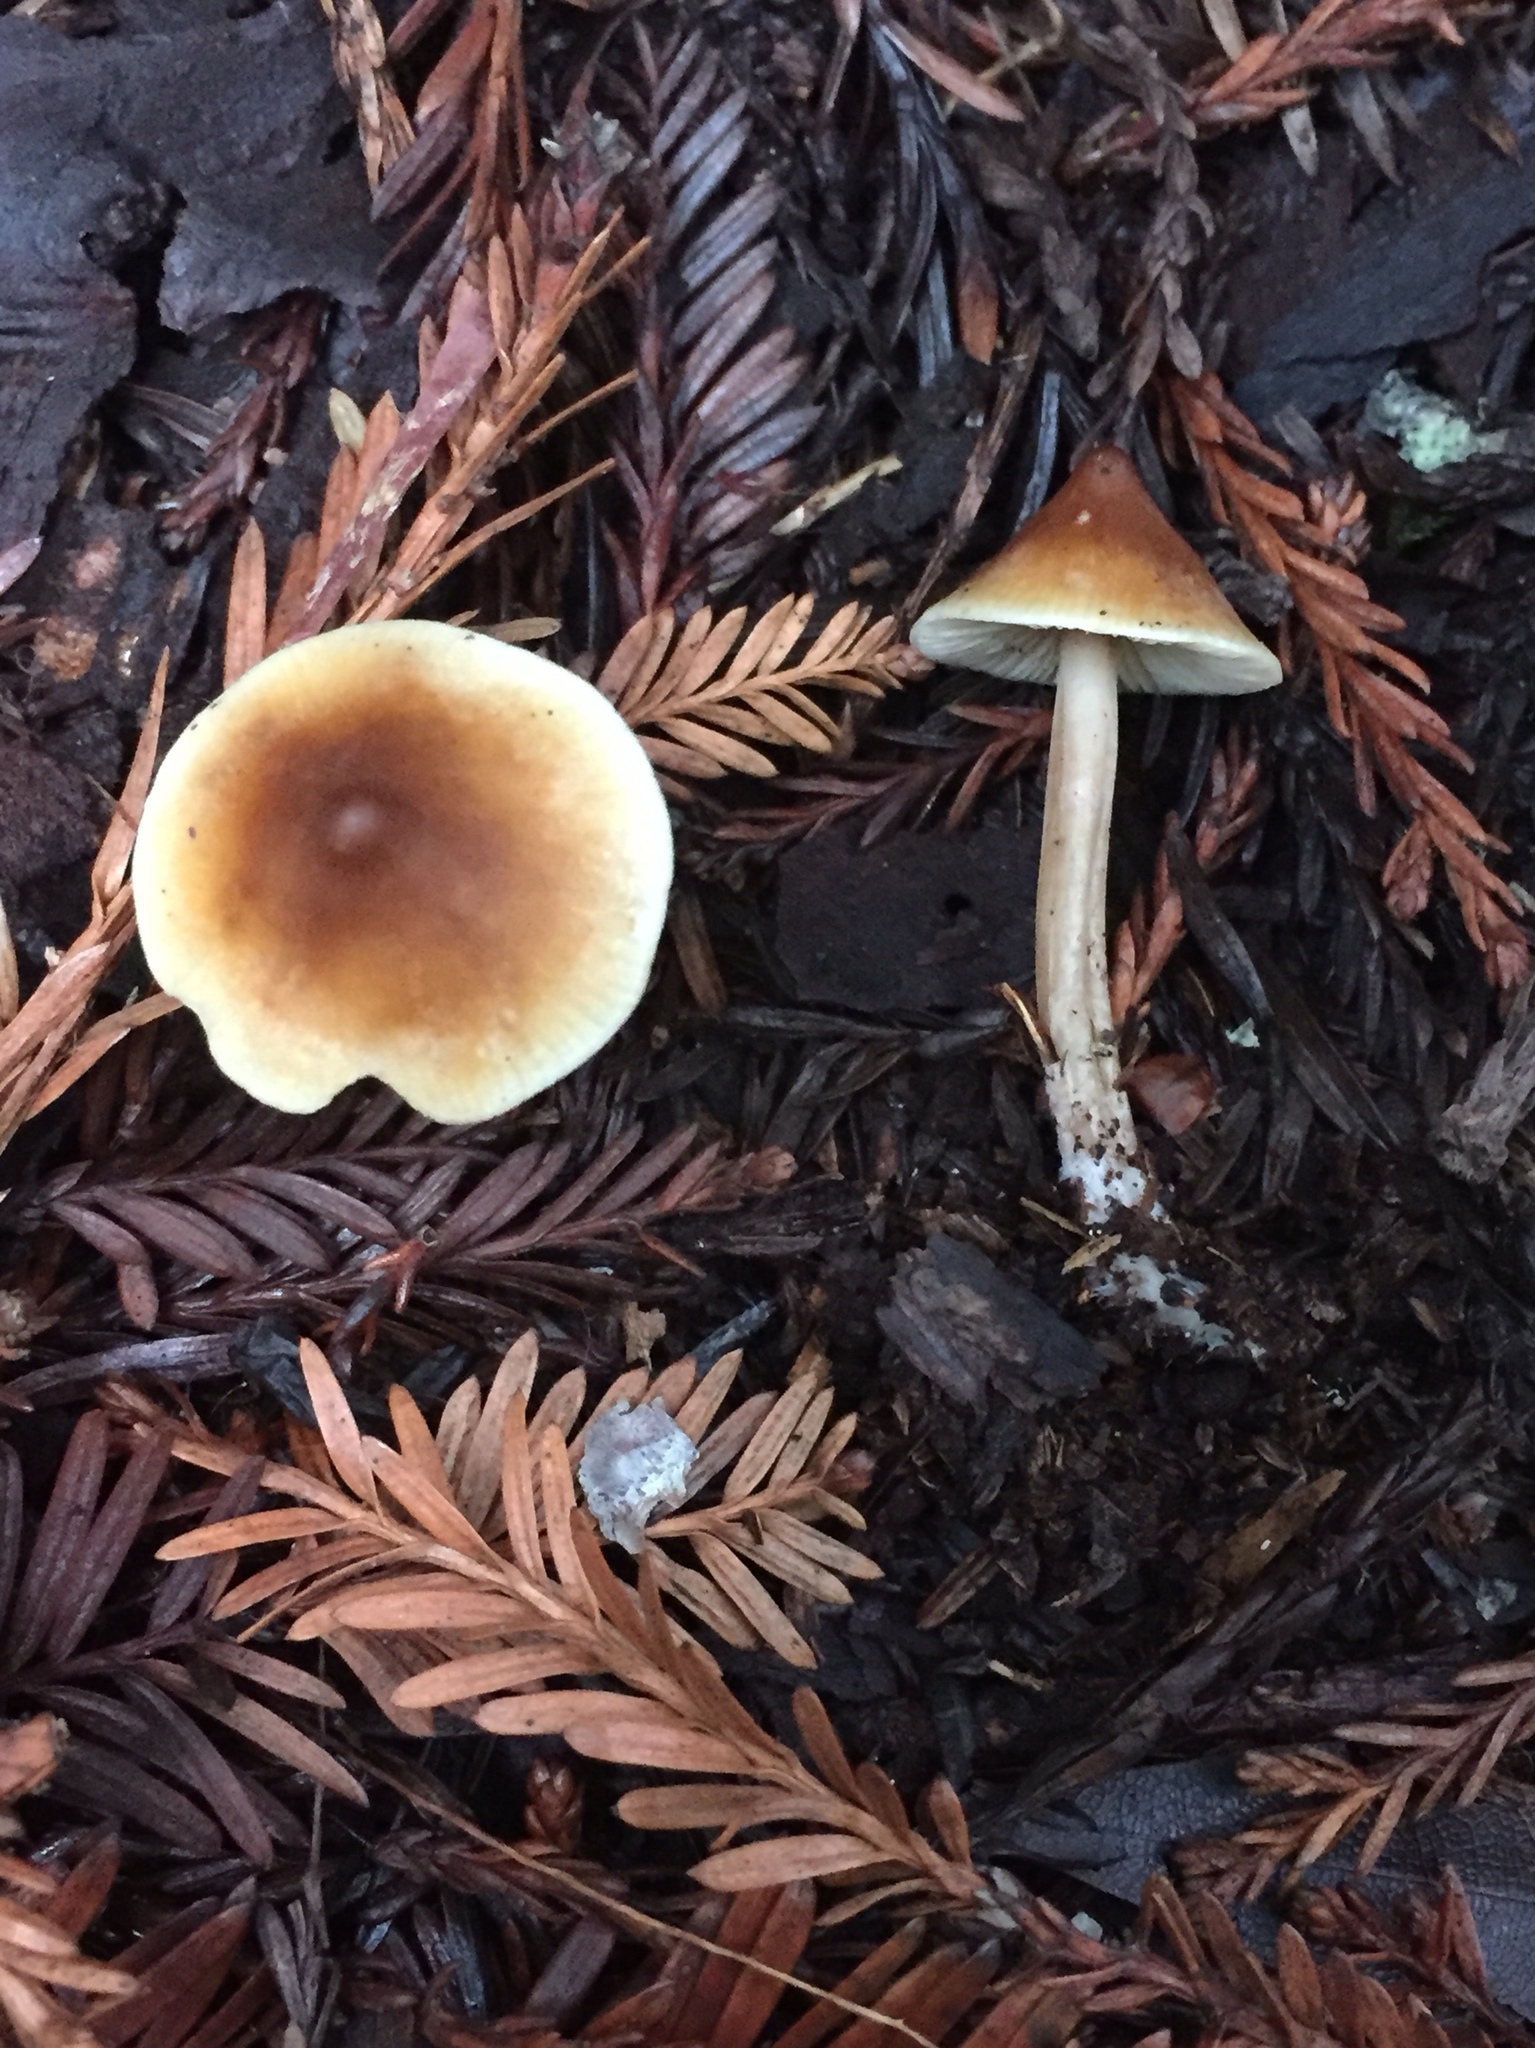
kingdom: Fungi
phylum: Basidiomycota
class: Agaricomycetes
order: Agaricales
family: Tricholomataceae
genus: Caulorhiza
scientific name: Caulorhiza umbonata
